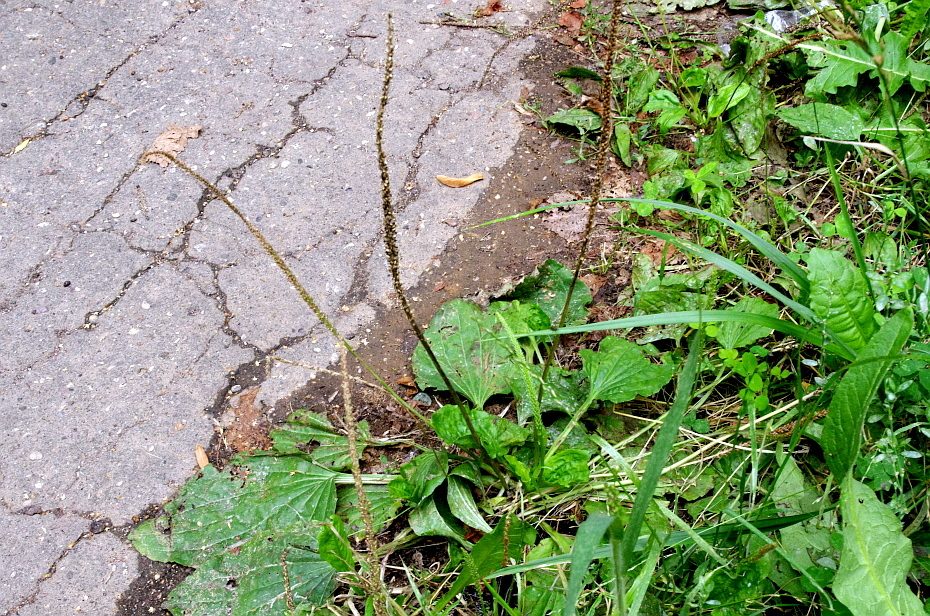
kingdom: Plantae
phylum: Tracheophyta
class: Magnoliopsida
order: Lamiales
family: Plantaginaceae
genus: Plantago
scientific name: Plantago major
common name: Common plantain
